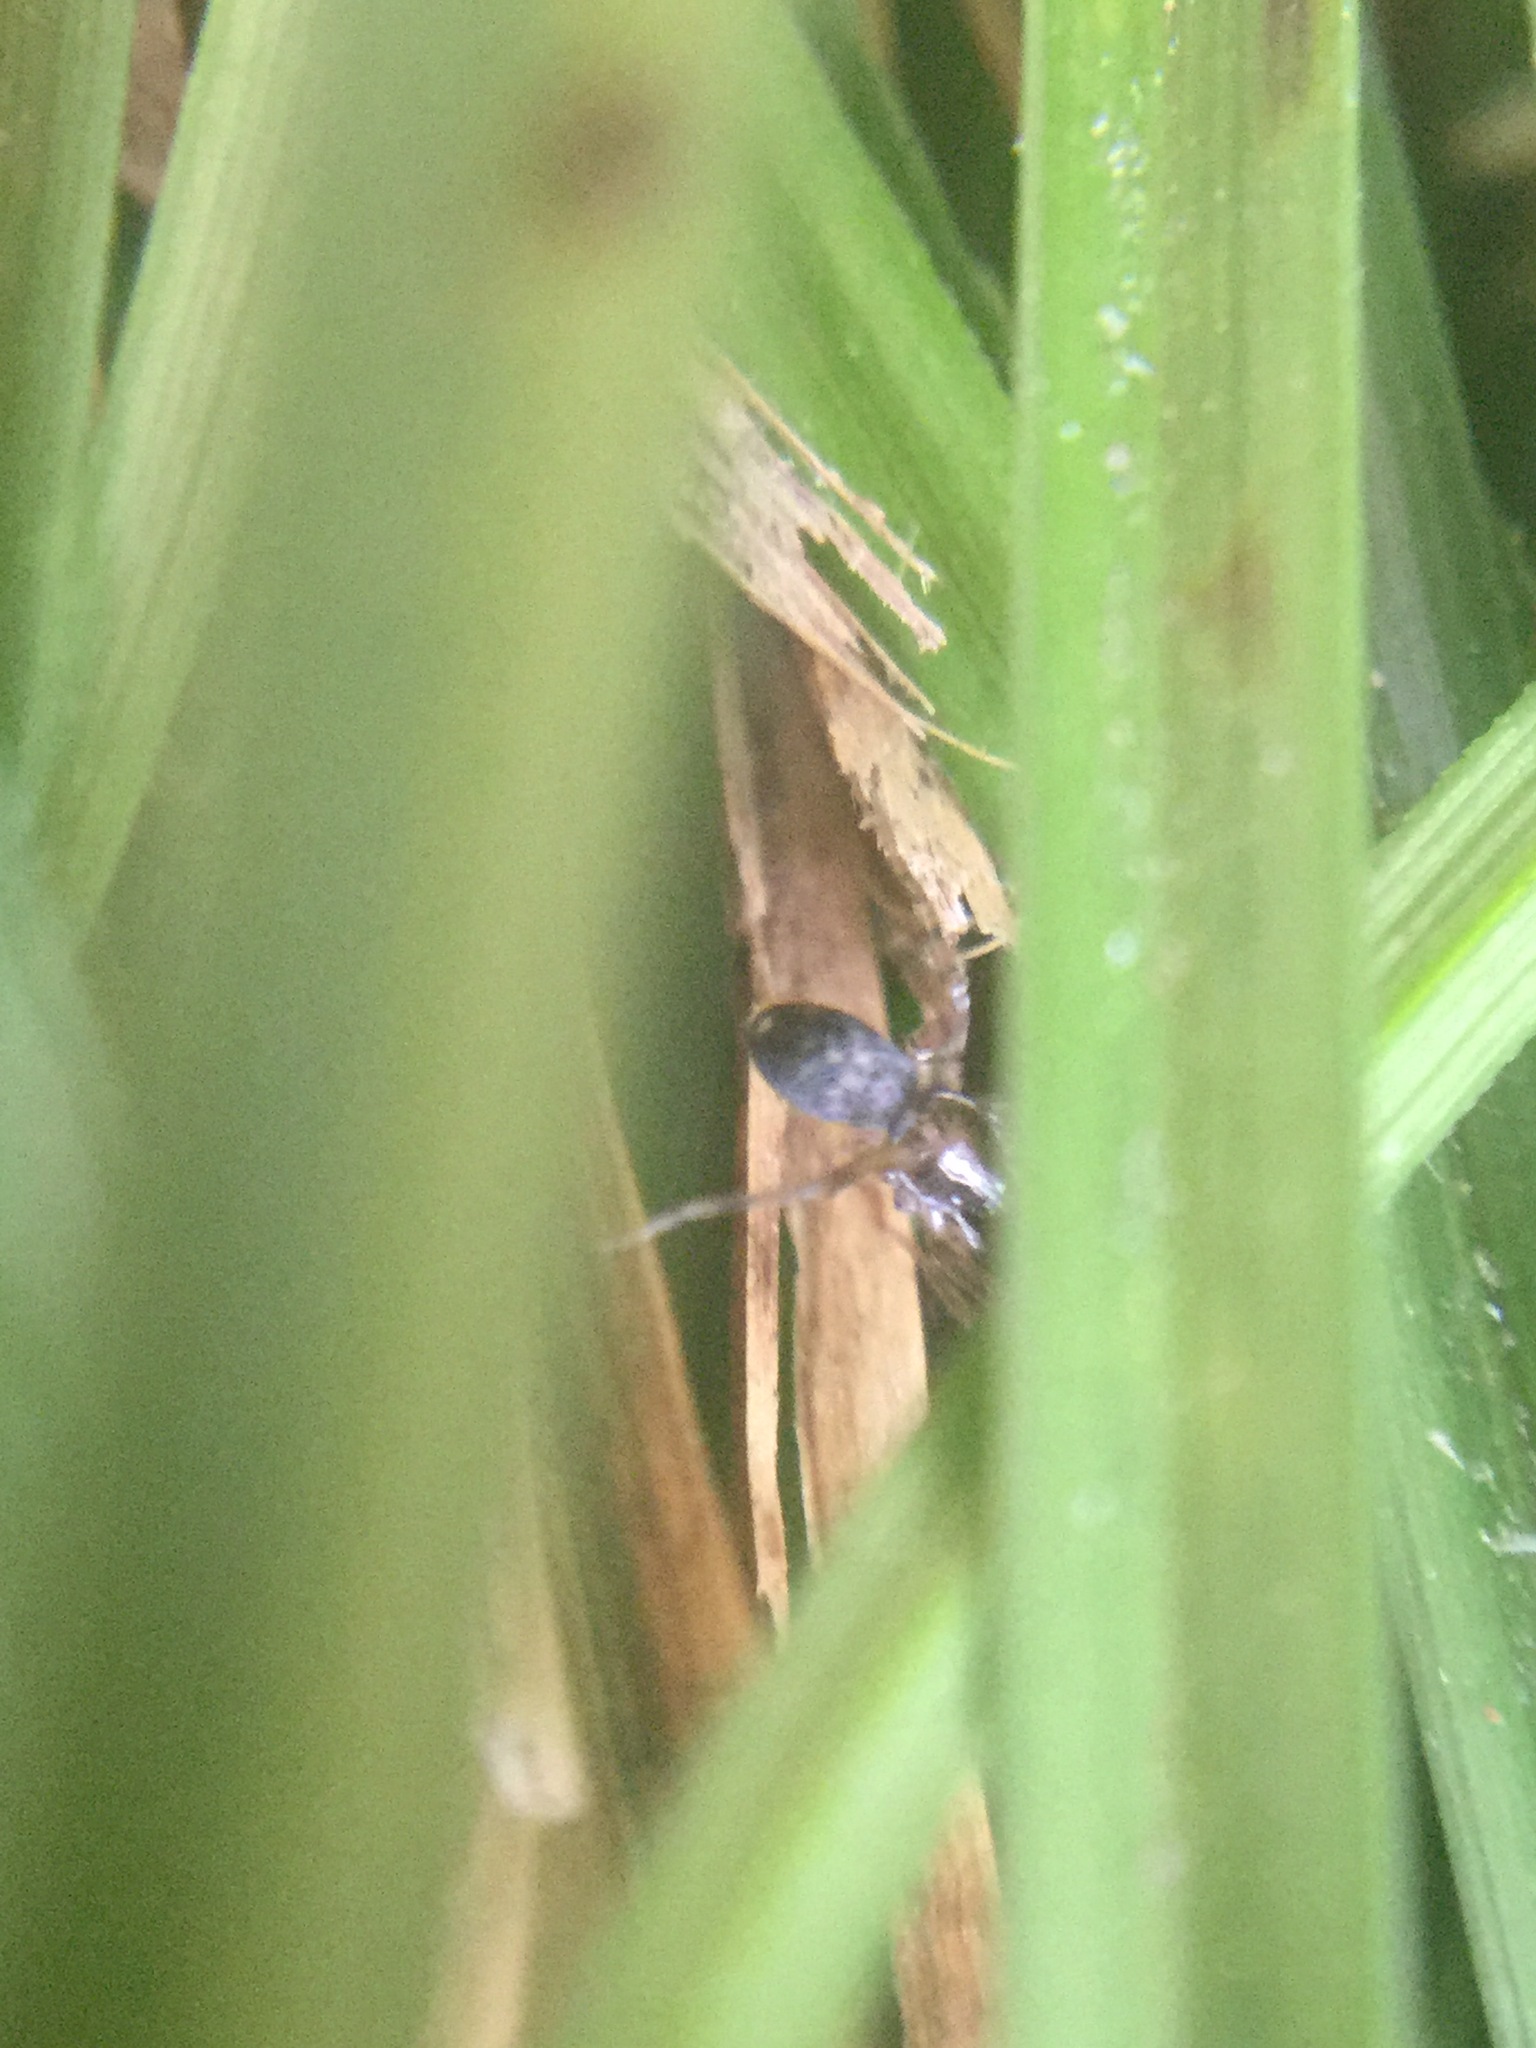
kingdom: Animalia
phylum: Arthropoda
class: Arachnida
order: Araneae
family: Phrurolithidae
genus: Phrurotimpus
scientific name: Phrurotimpus borealis
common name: Greater ant-mimic corinne spider
